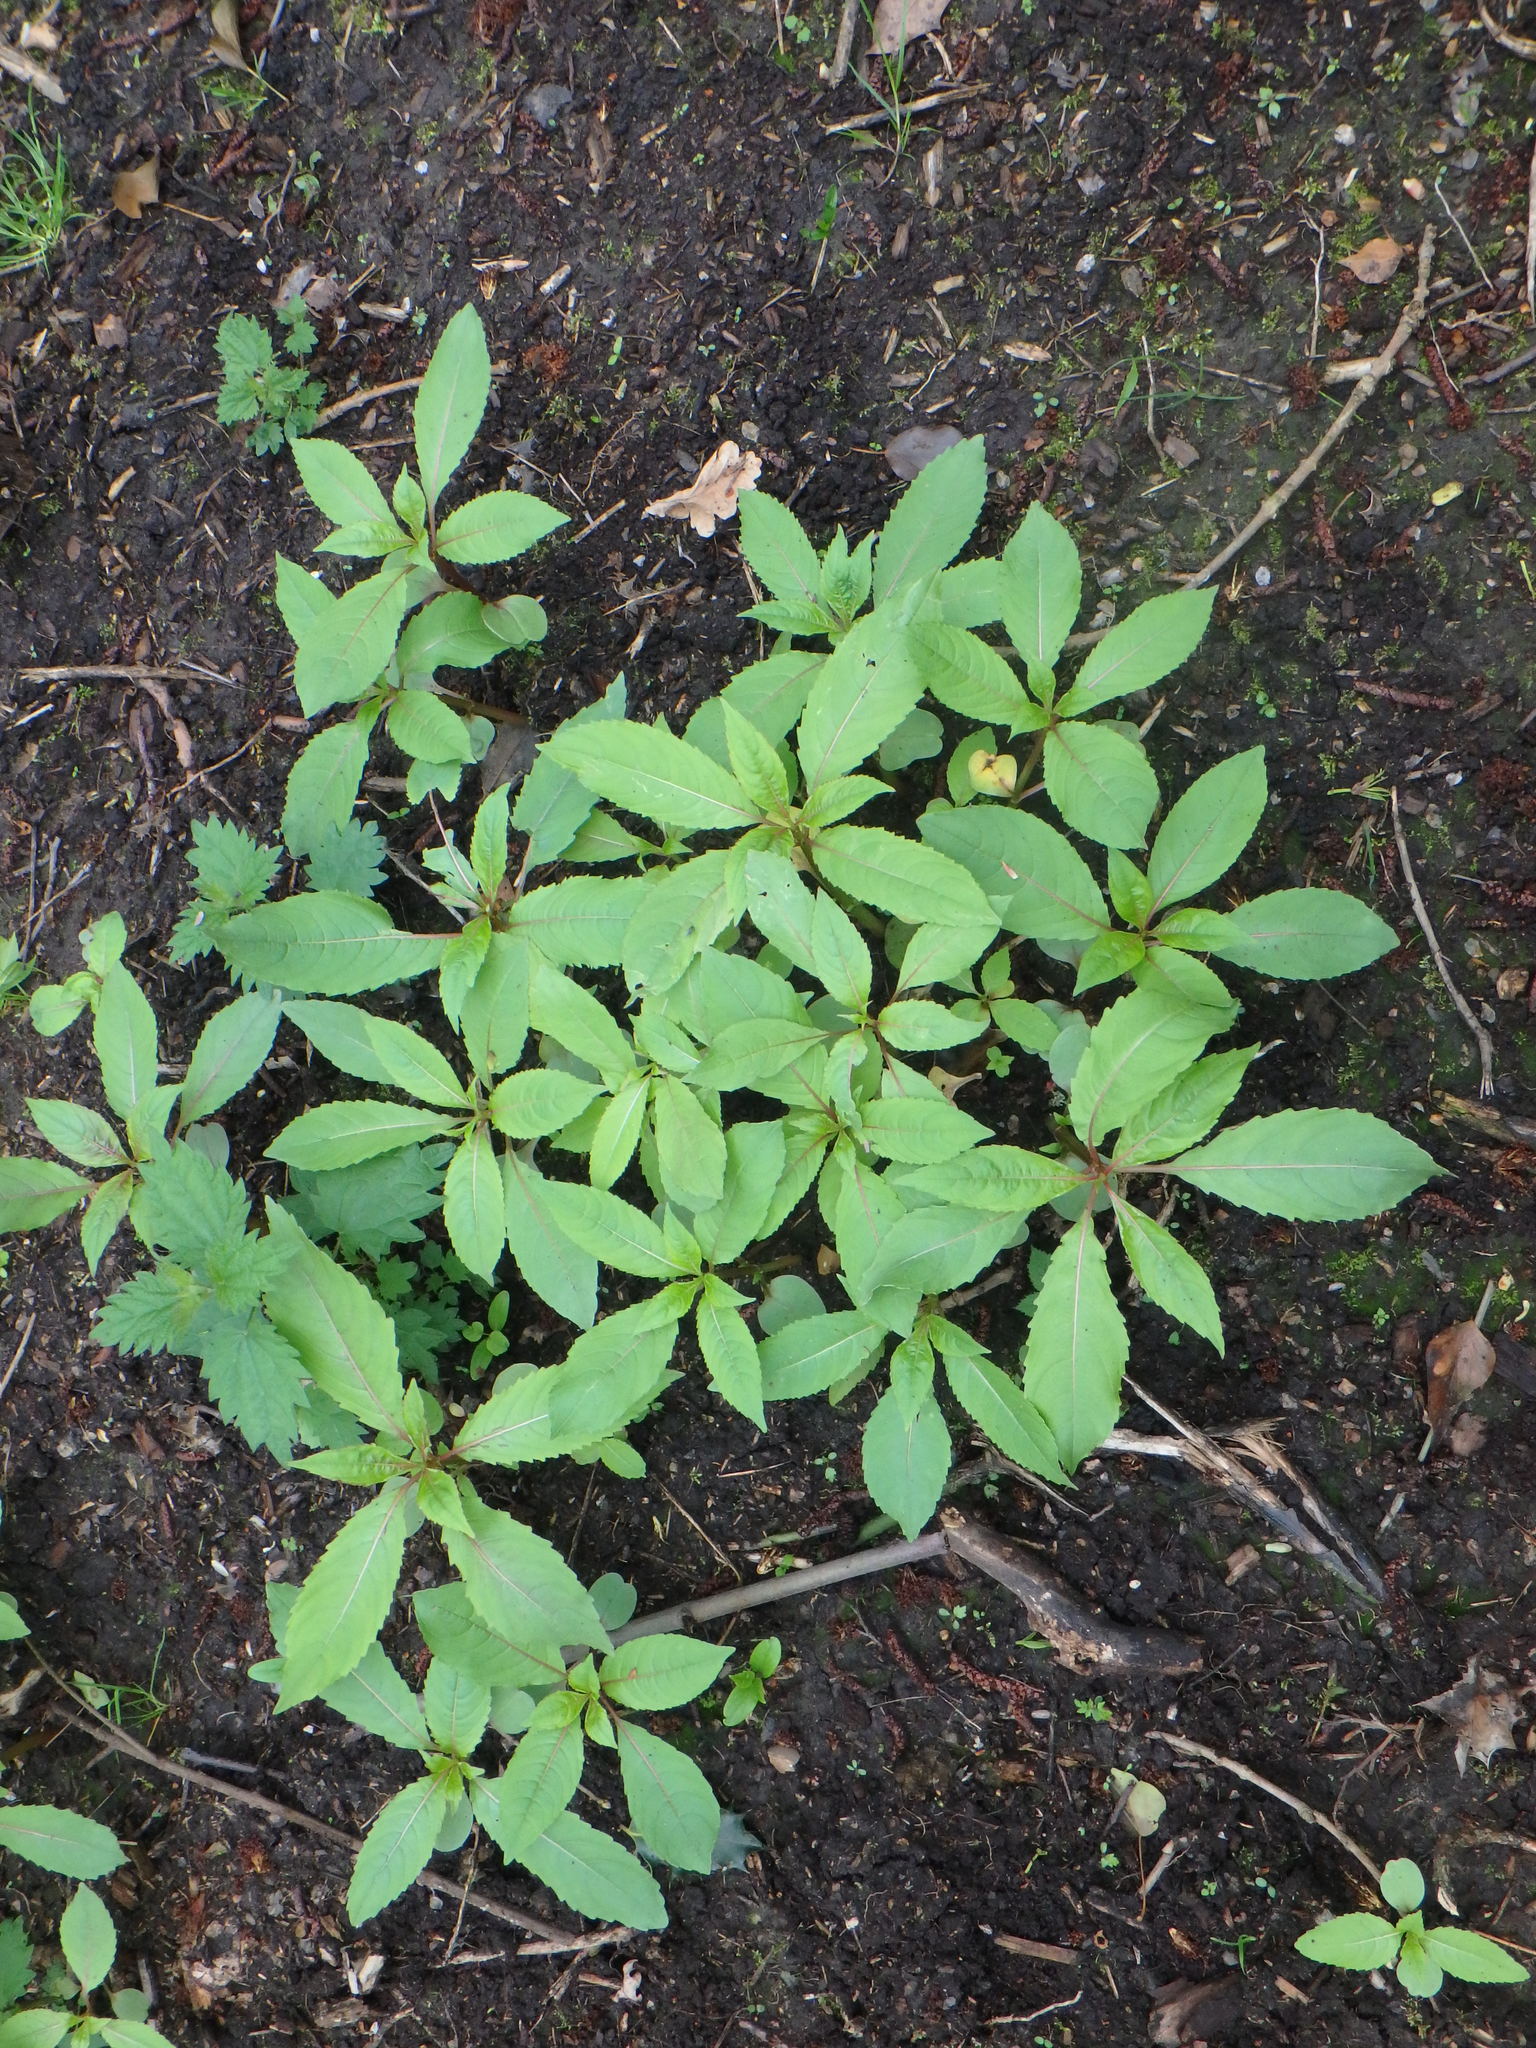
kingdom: Plantae
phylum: Tracheophyta
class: Magnoliopsida
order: Ericales
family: Balsaminaceae
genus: Impatiens
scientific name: Impatiens glandulifera
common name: Himalayan balsam
